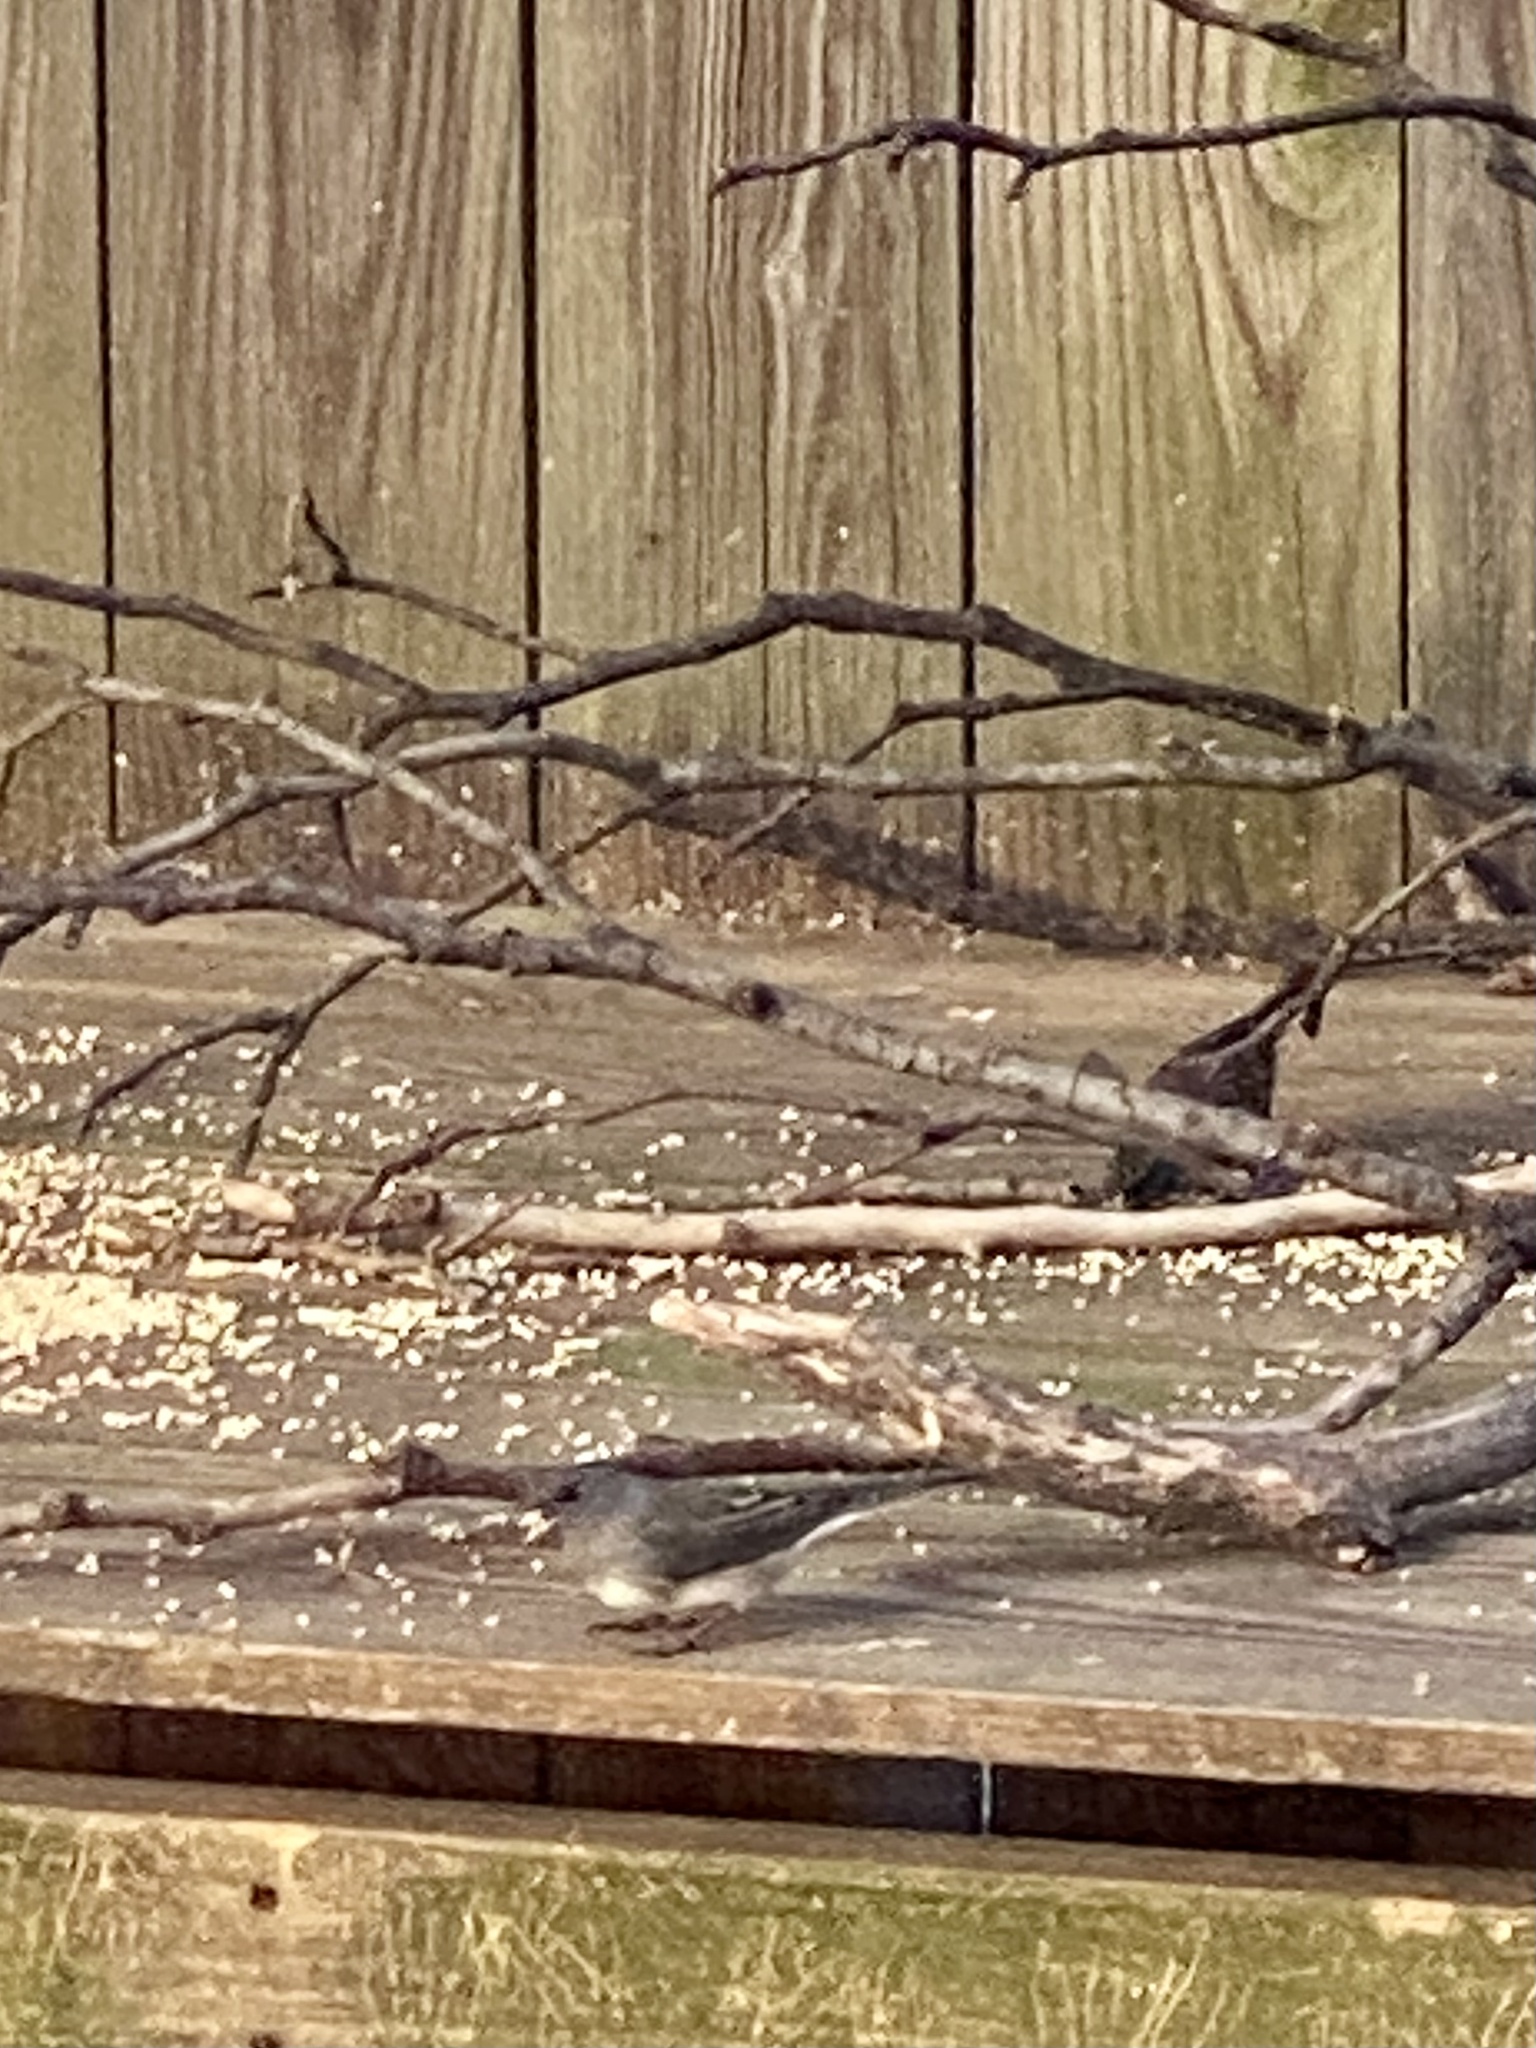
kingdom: Animalia
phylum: Chordata
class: Aves
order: Passeriformes
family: Passerellidae
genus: Junco
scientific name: Junco hyemalis
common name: Dark-eyed junco
